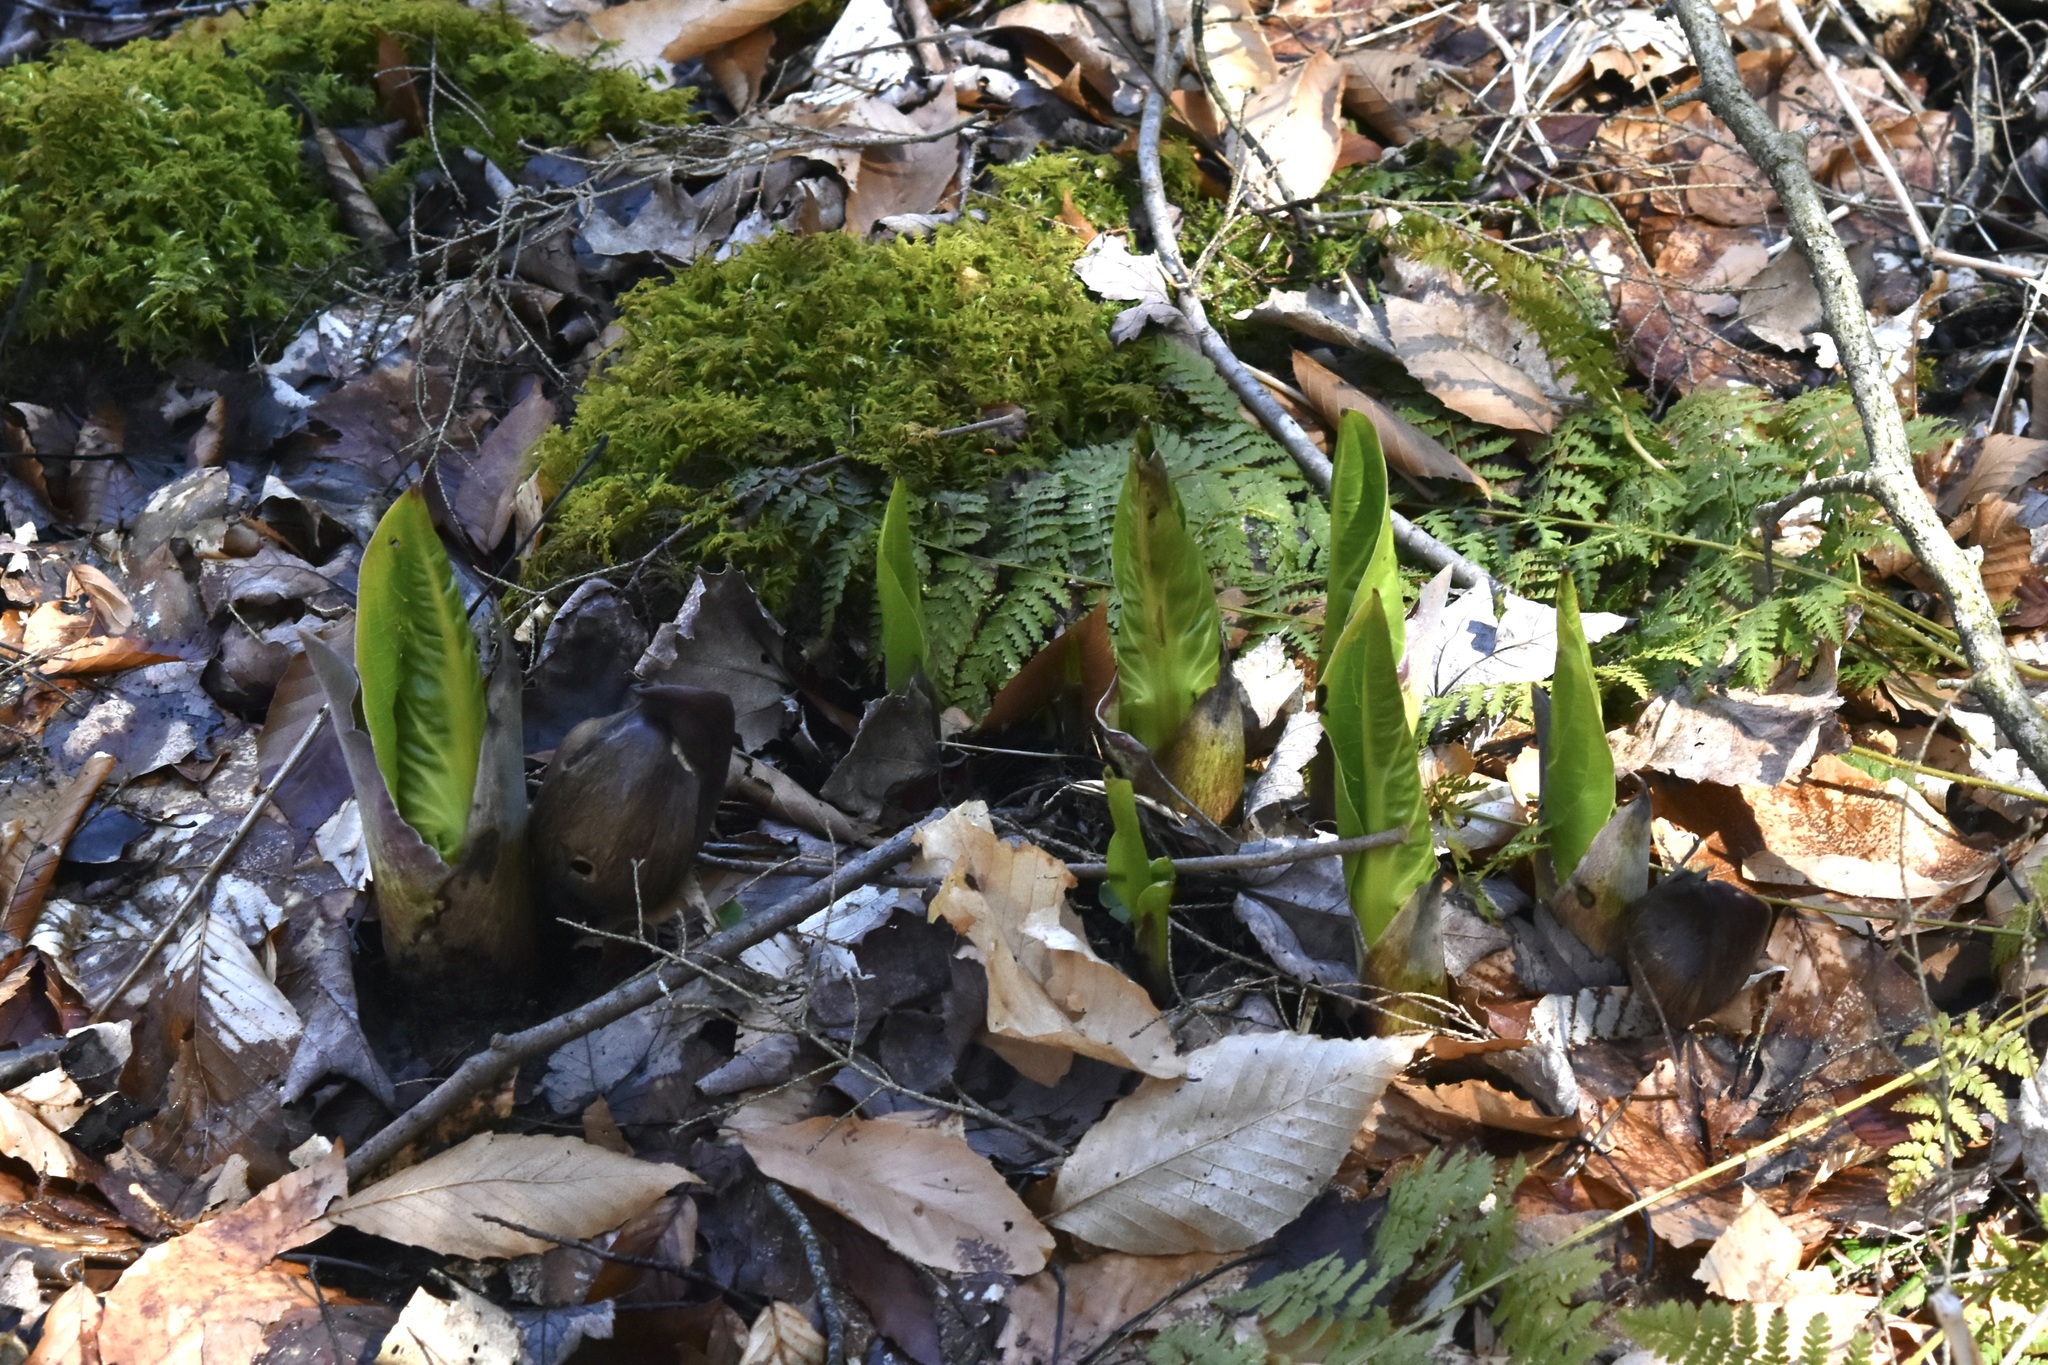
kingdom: Plantae
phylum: Tracheophyta
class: Liliopsida
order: Alismatales
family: Araceae
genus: Symplocarpus
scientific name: Symplocarpus foetidus
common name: Eastern skunk cabbage
